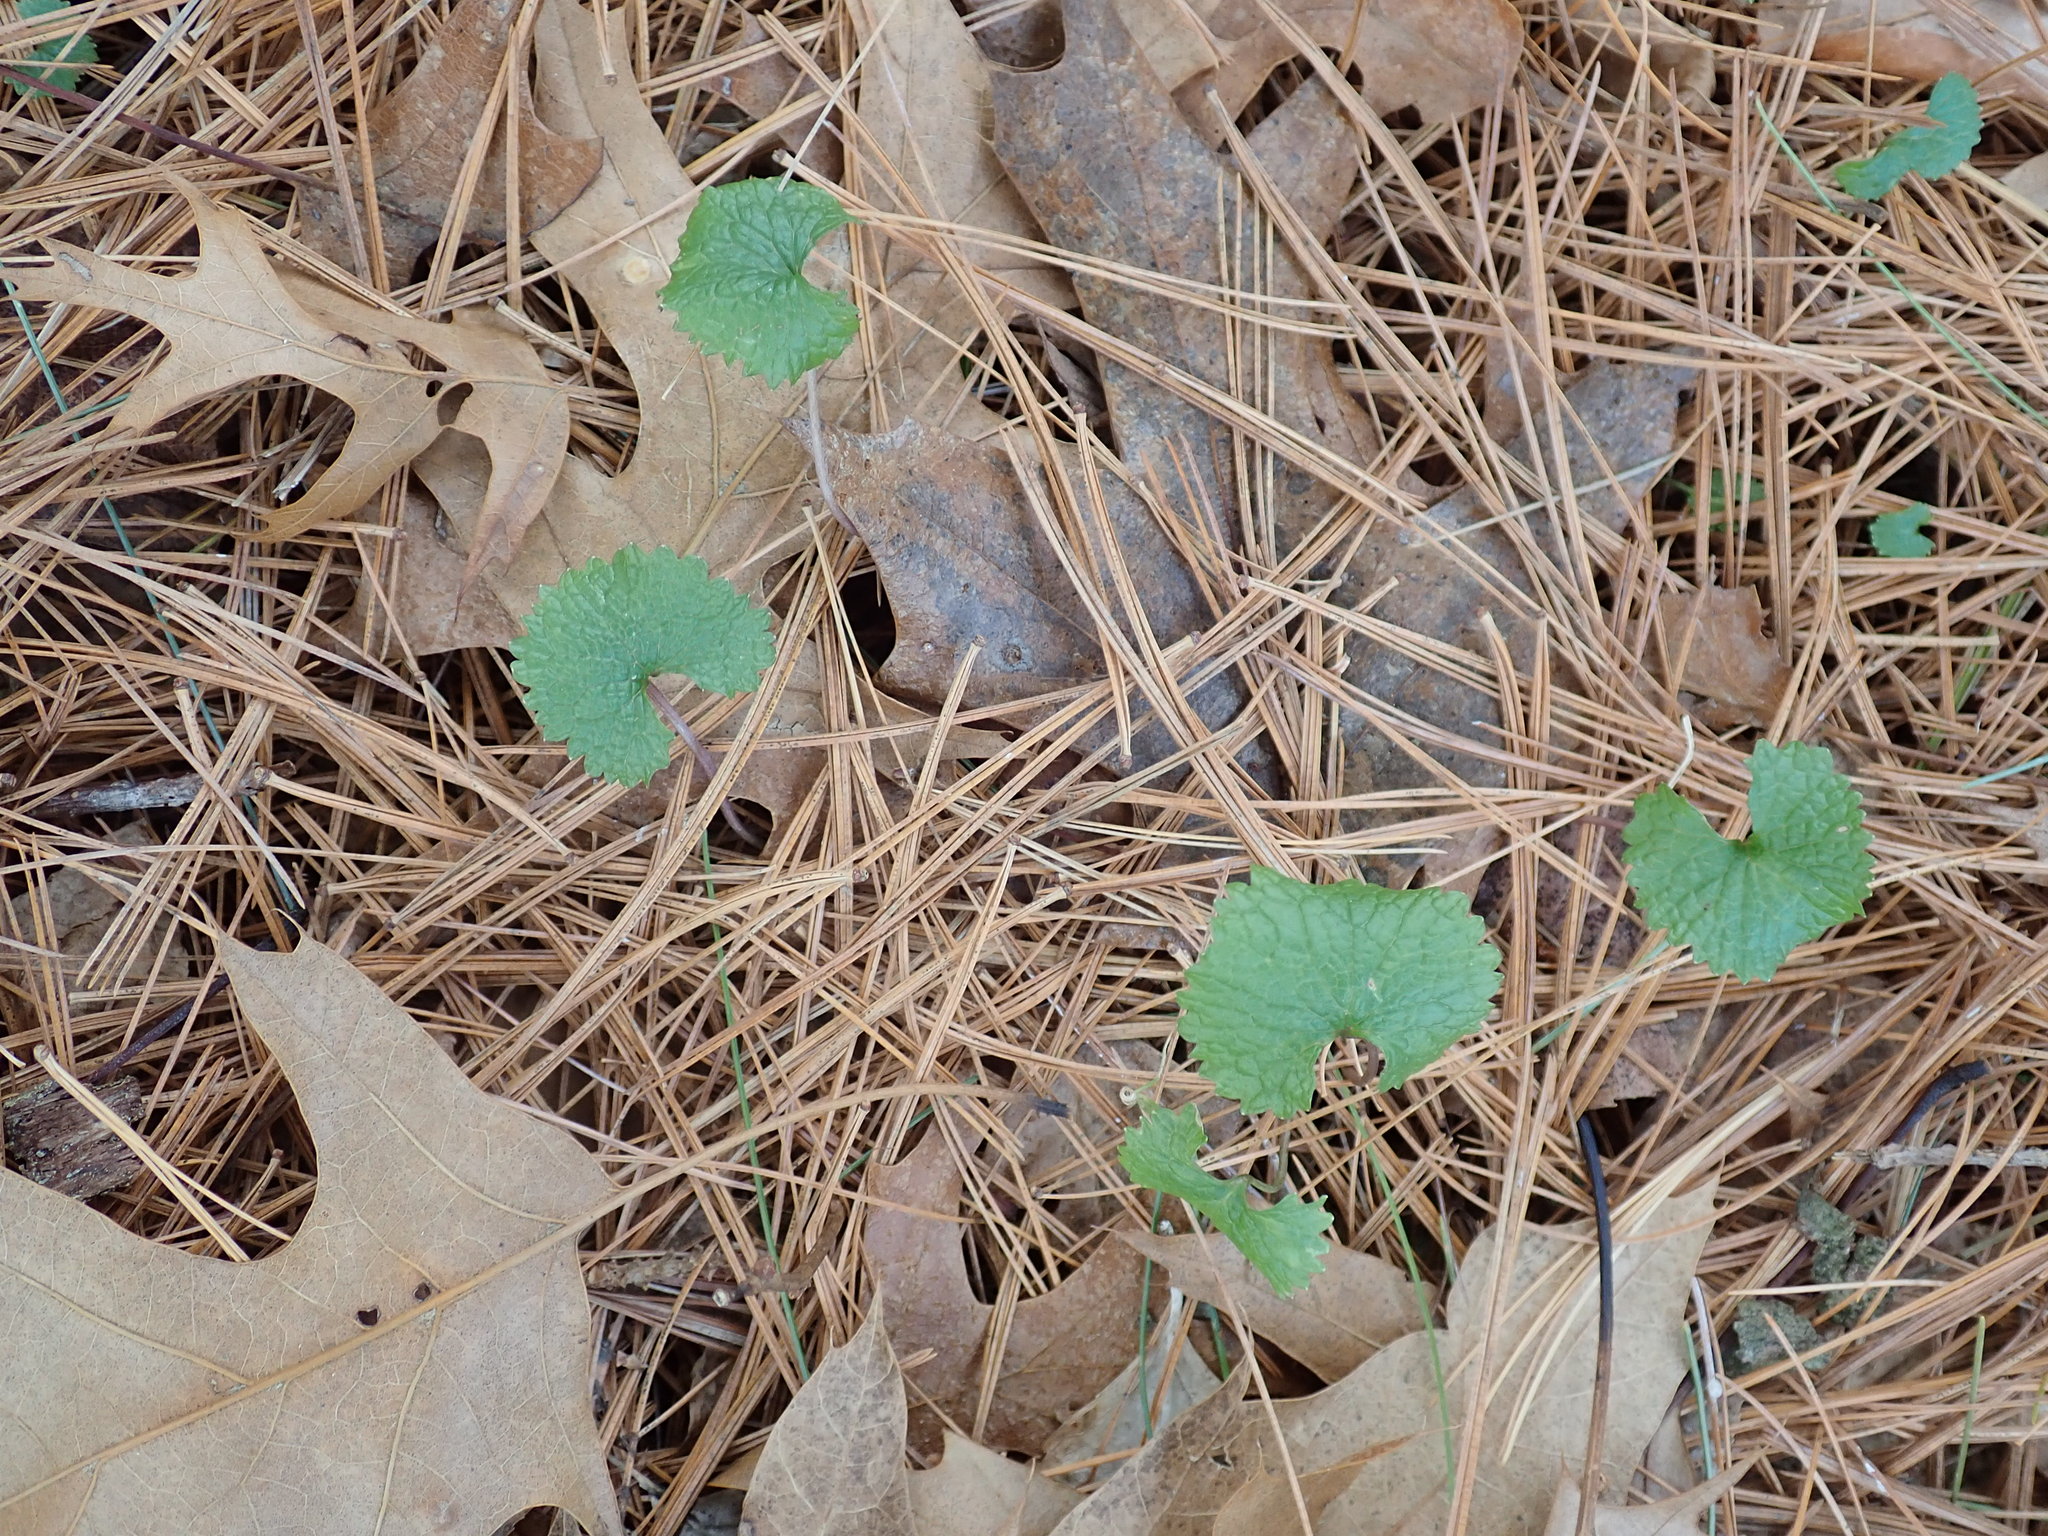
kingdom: Plantae
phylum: Tracheophyta
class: Magnoliopsida
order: Brassicales
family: Brassicaceae
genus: Alliaria
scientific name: Alliaria petiolata
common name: Garlic mustard
